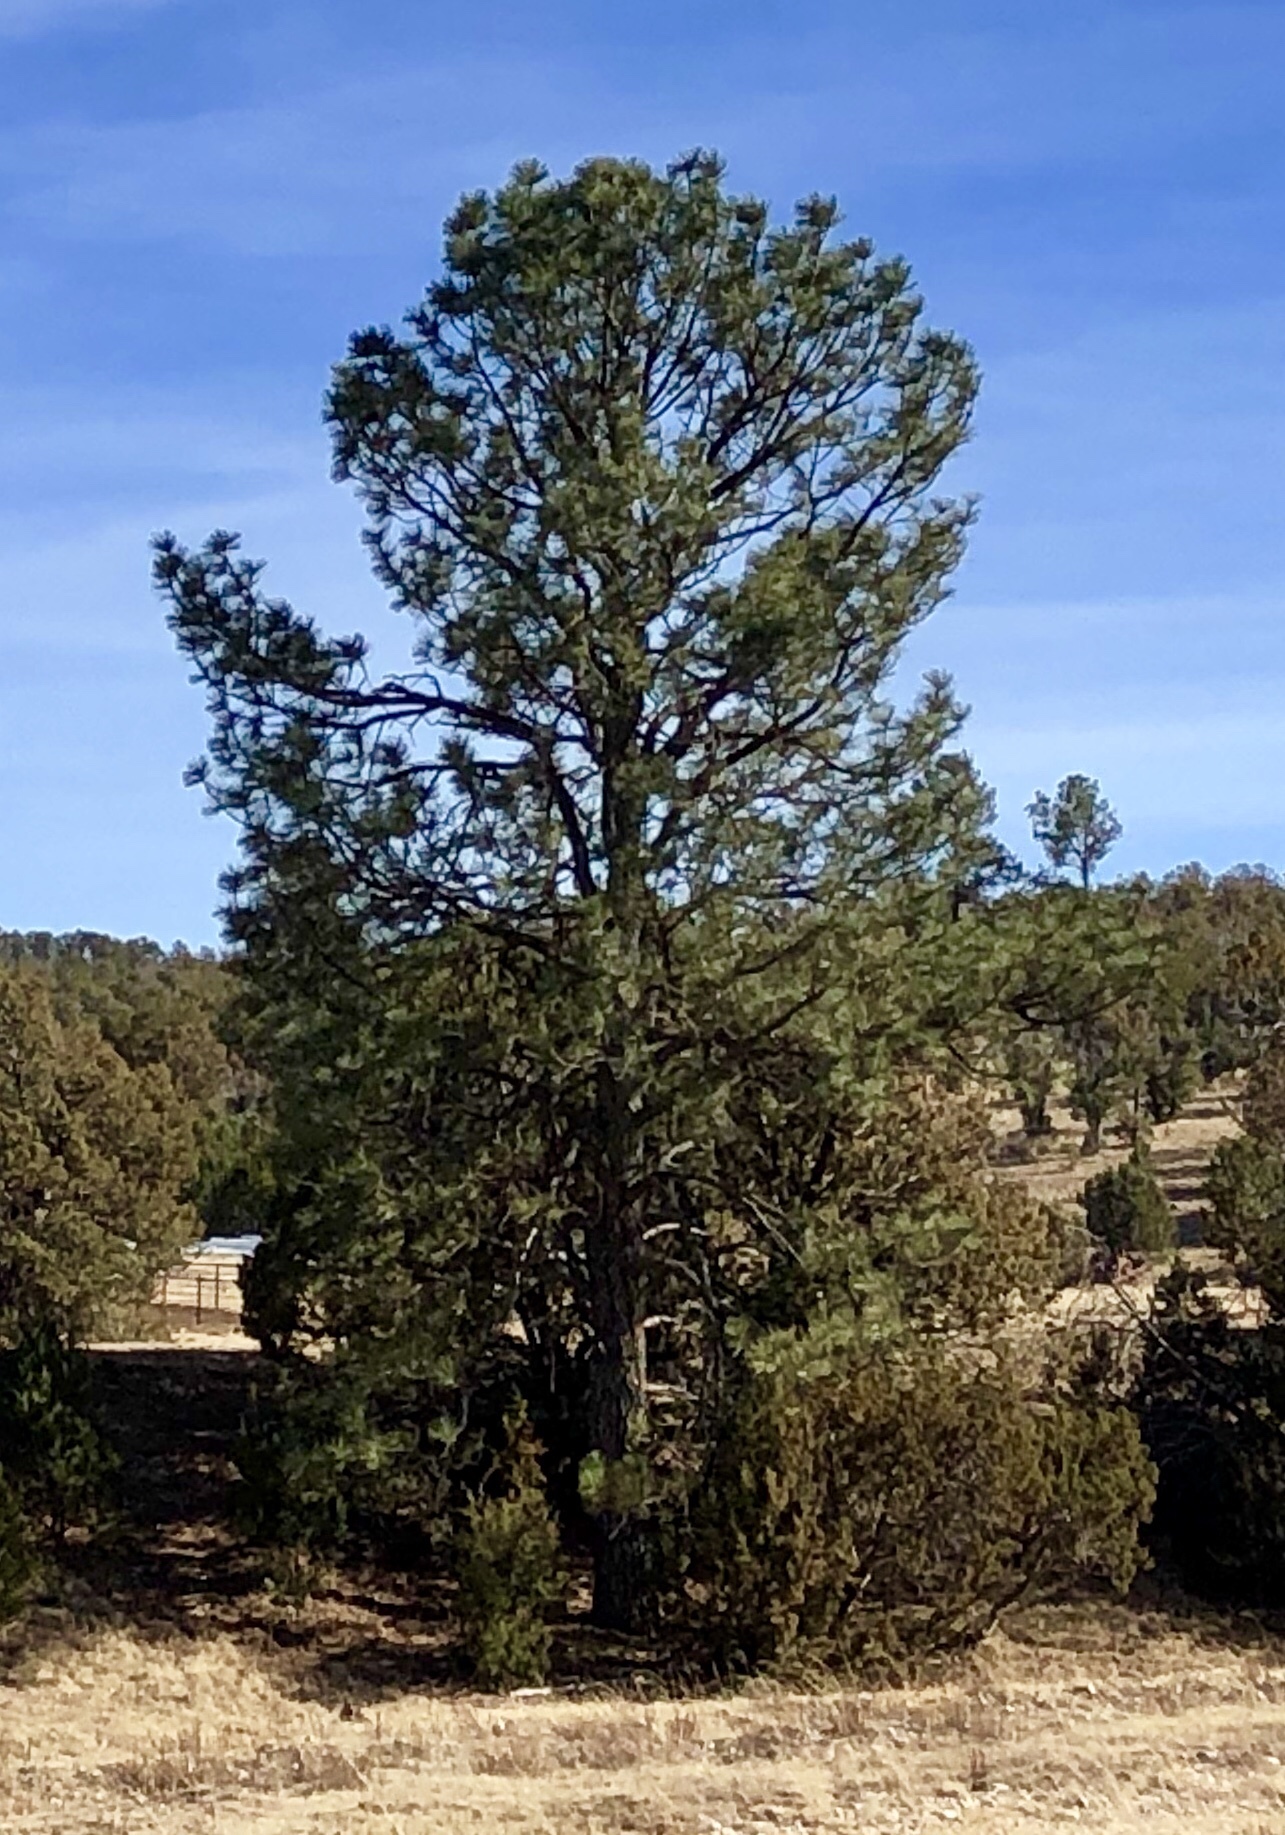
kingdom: Plantae
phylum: Tracheophyta
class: Pinopsida
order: Pinales
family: Pinaceae
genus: Pinus
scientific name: Pinus ponderosa
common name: Western yellow-pine
